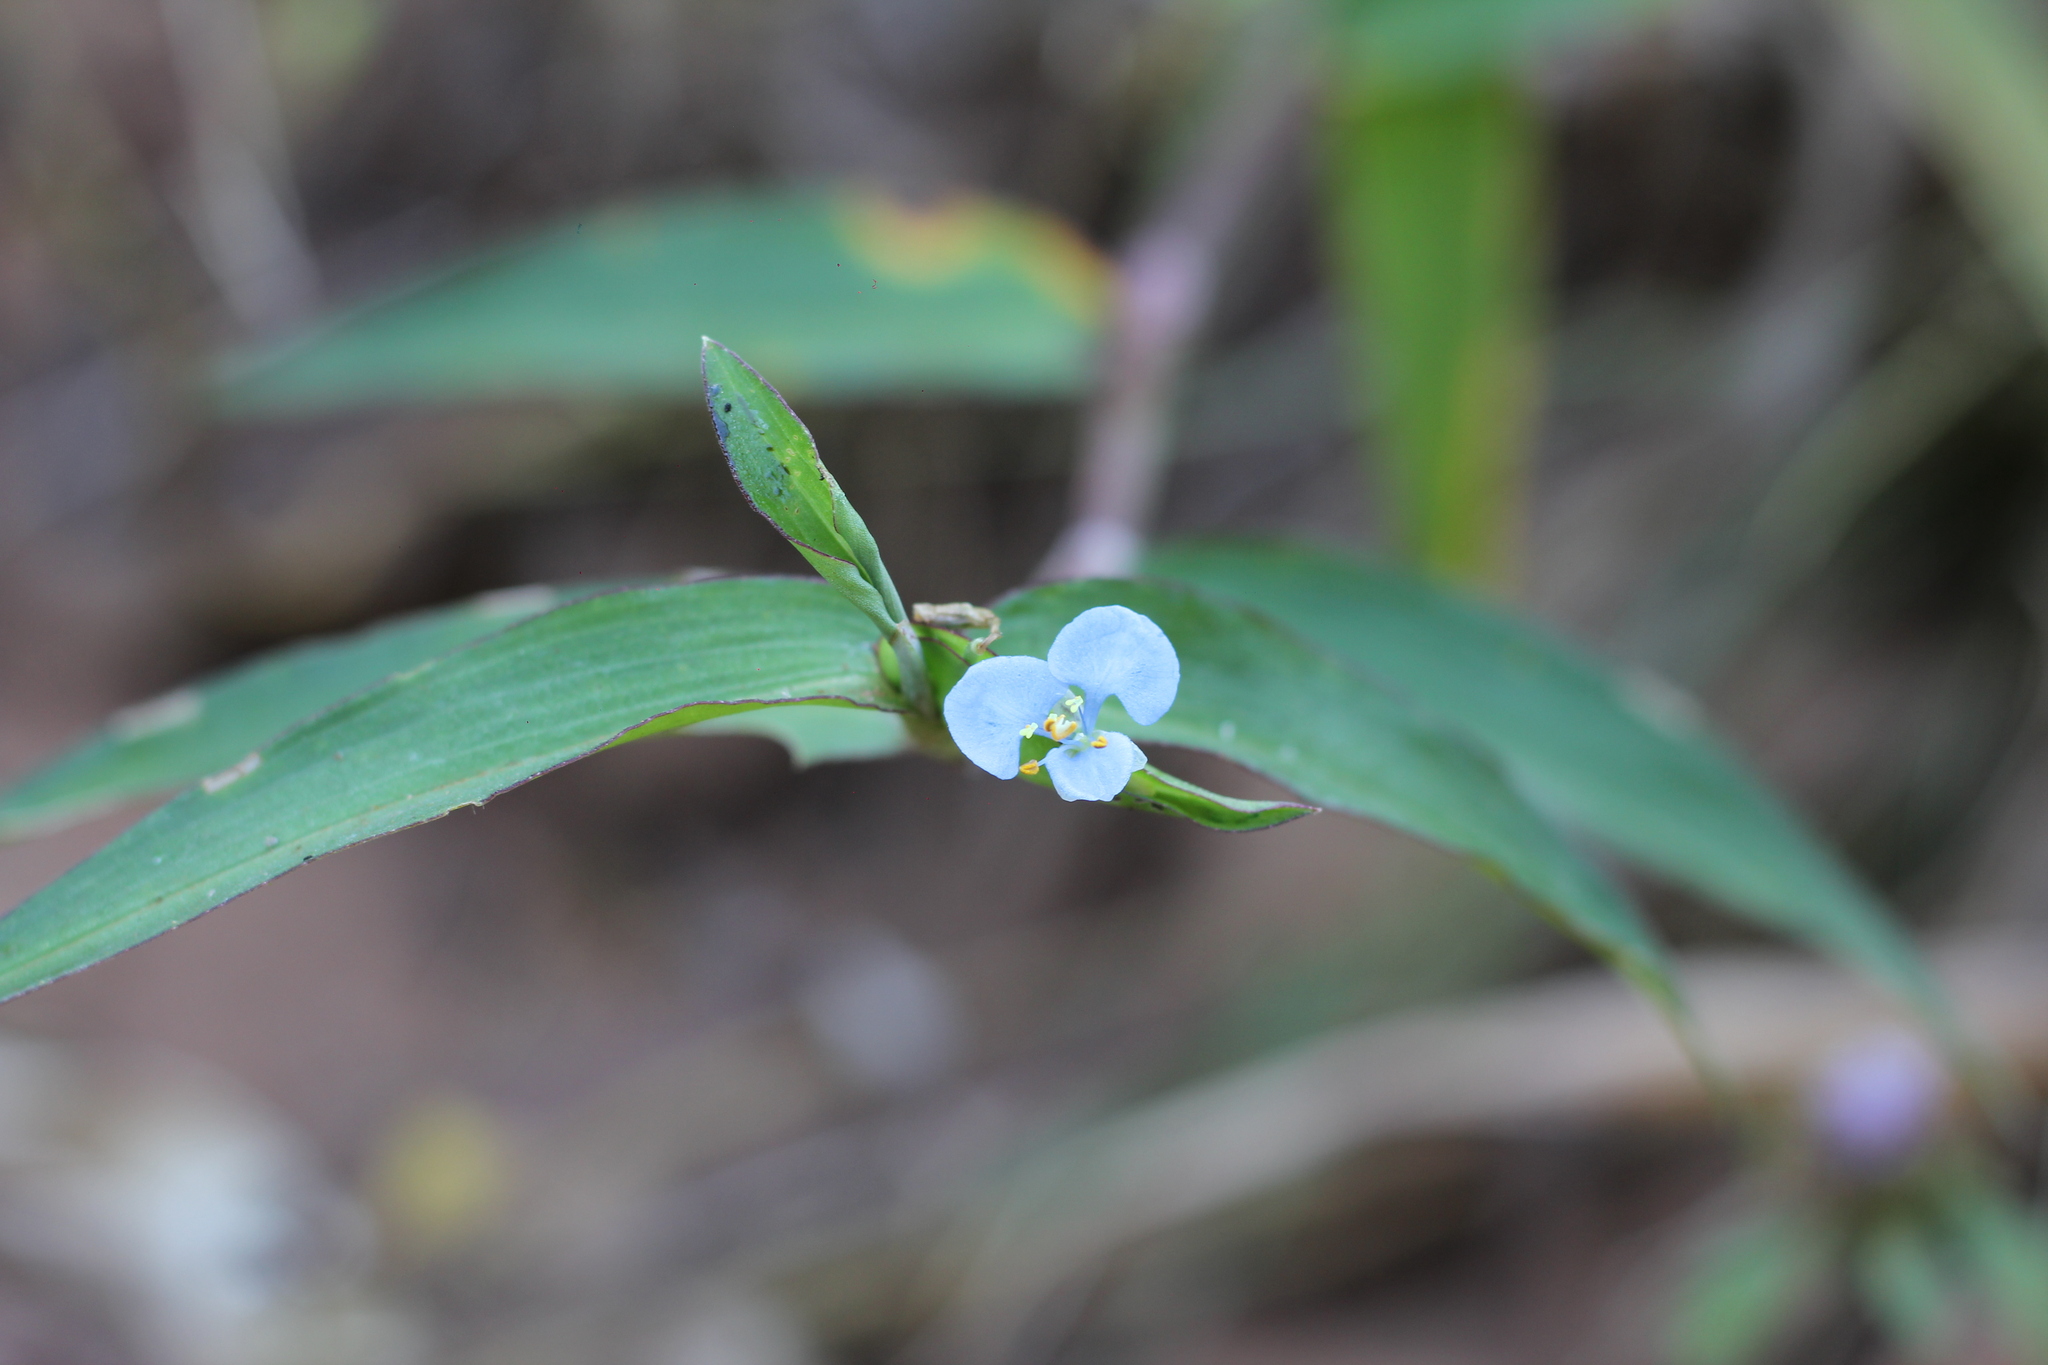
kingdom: Plantae
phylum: Tracheophyta
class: Liliopsida
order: Commelinales
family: Commelinaceae
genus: Commelina
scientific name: Commelina diffusa
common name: Climbing dayflower
